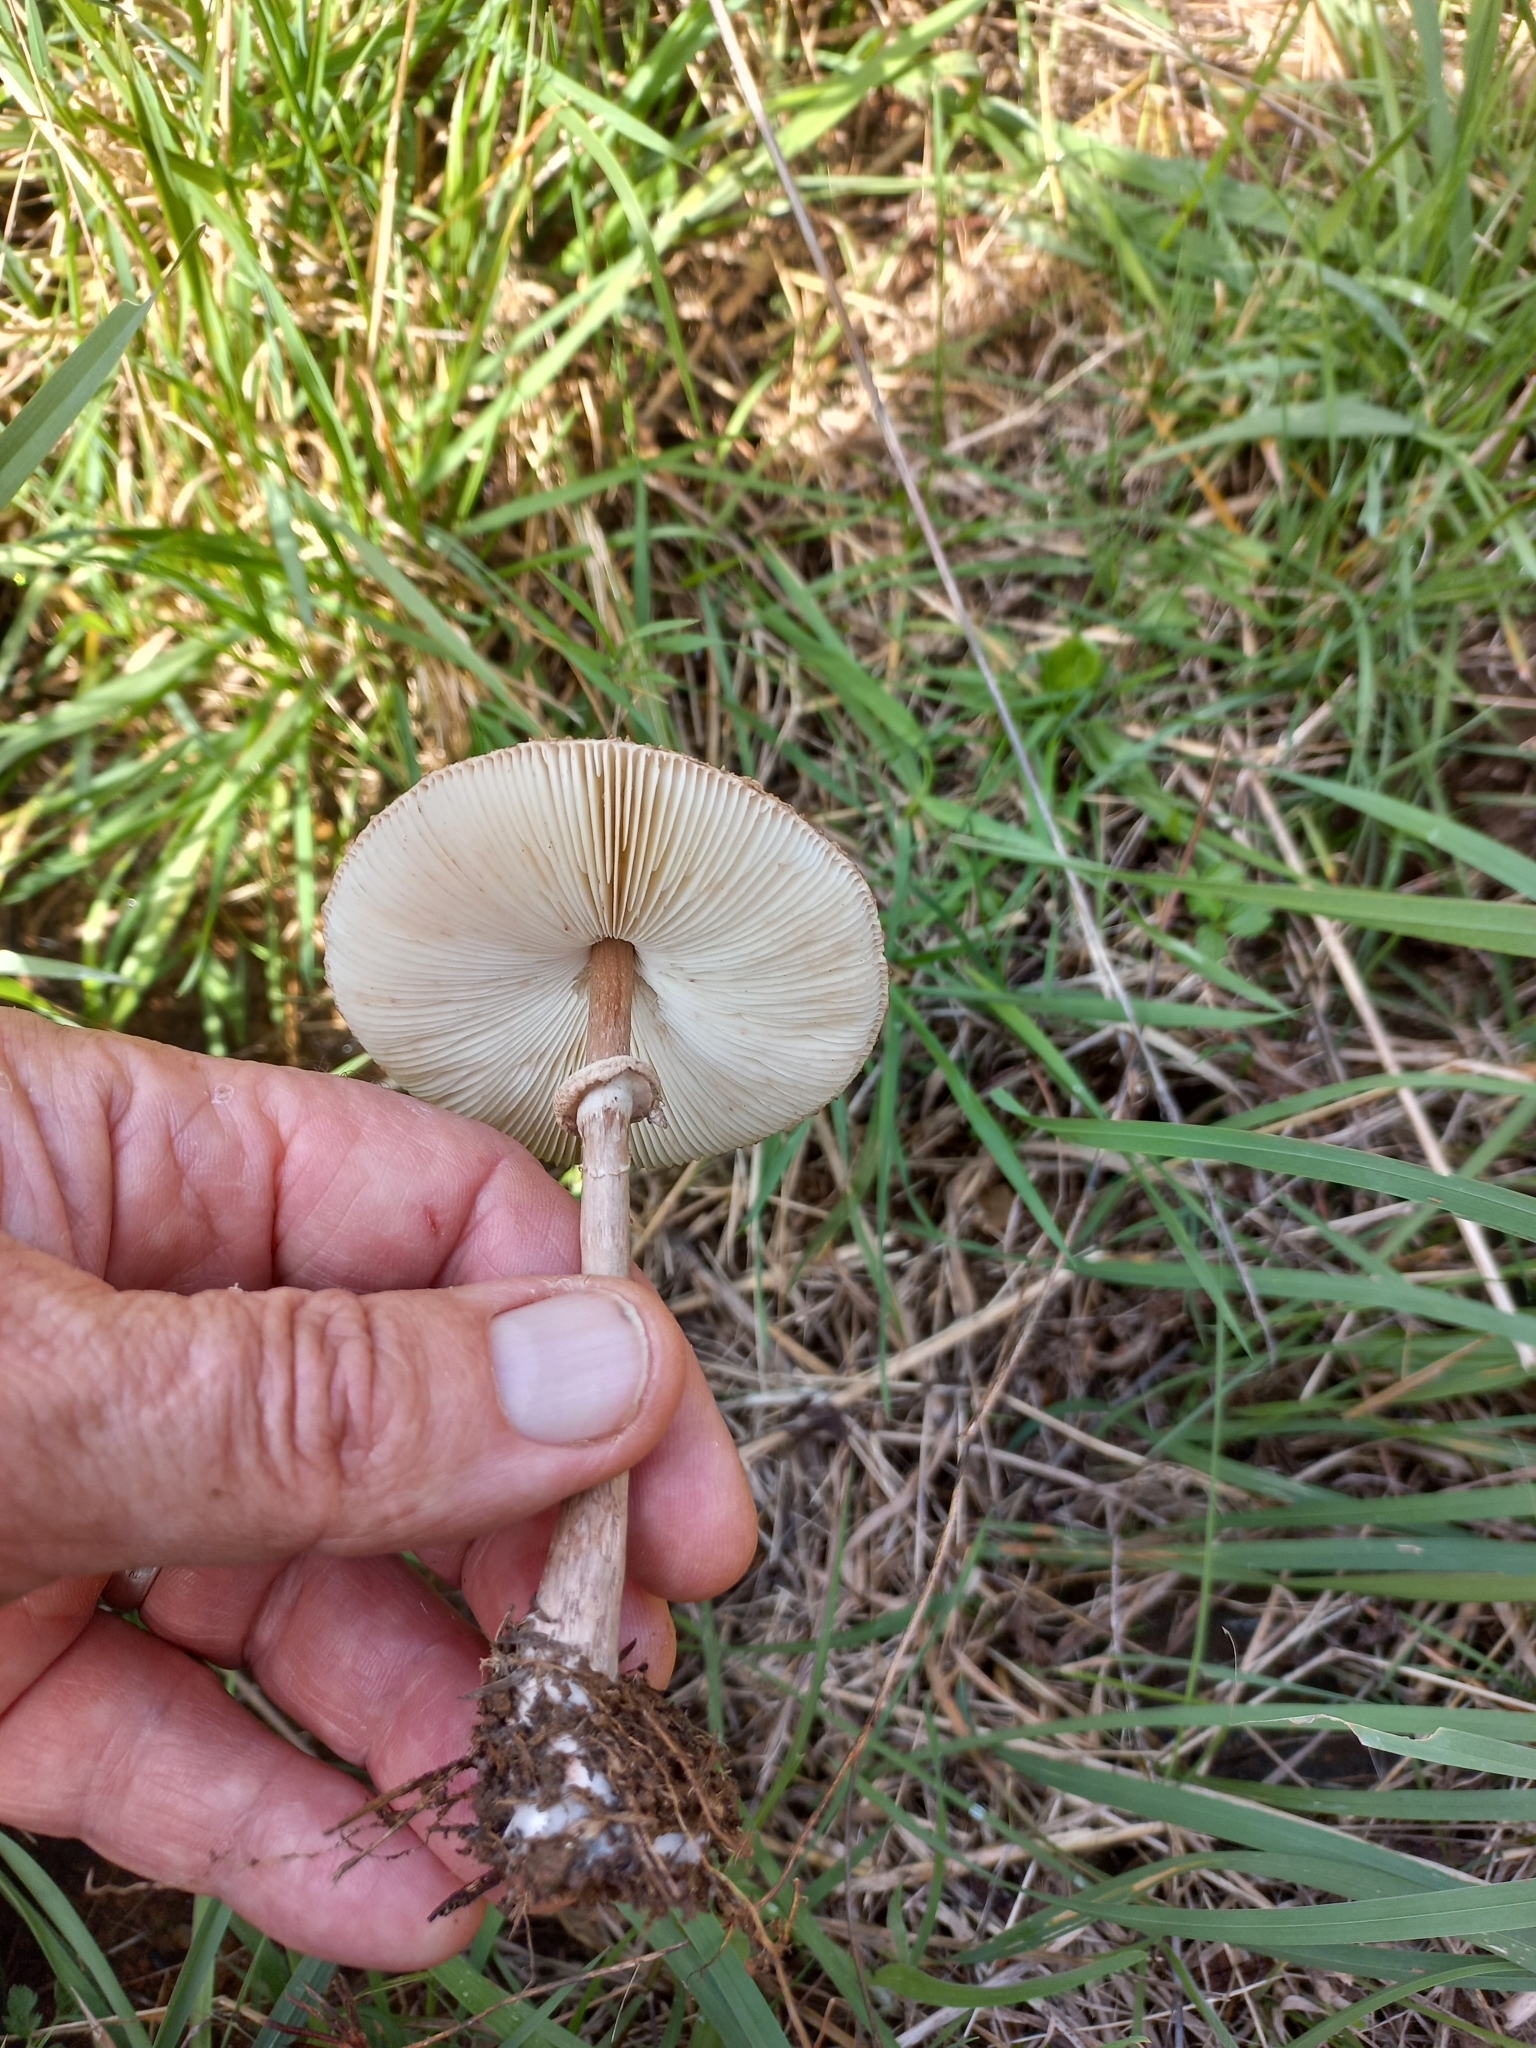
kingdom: Fungi
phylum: Basidiomycota
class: Agaricomycetes
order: Agaricales
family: Agaricaceae
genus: Macrolepiota
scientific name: Macrolepiota clelandii
